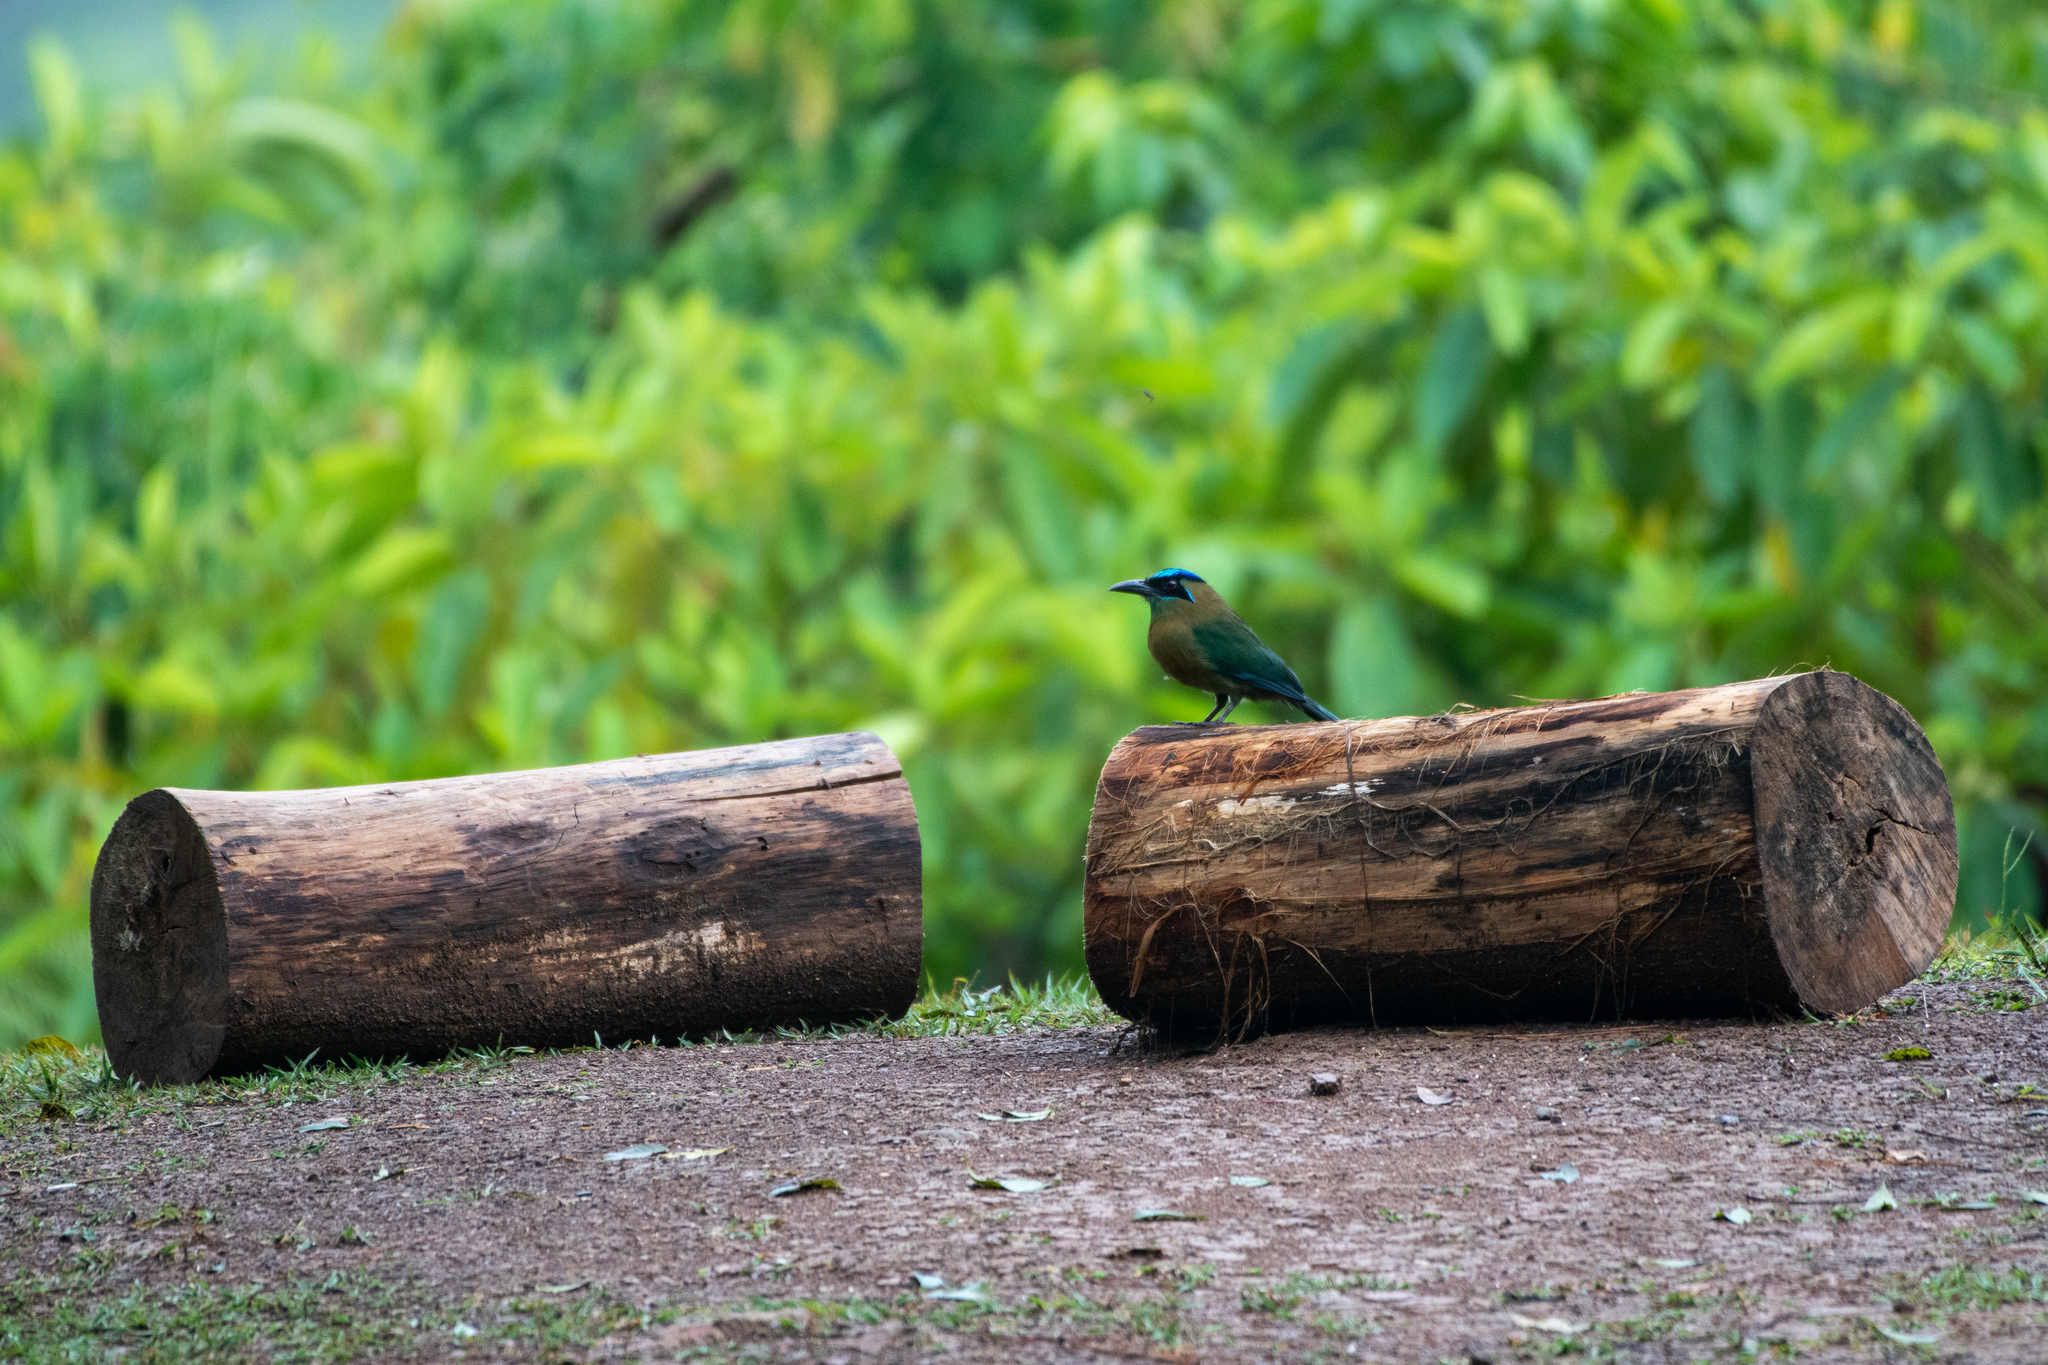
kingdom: Animalia
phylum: Chordata
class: Aves
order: Coraciiformes
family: Momotidae
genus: Momotus
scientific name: Momotus lessonii
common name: Lesson's motmot
